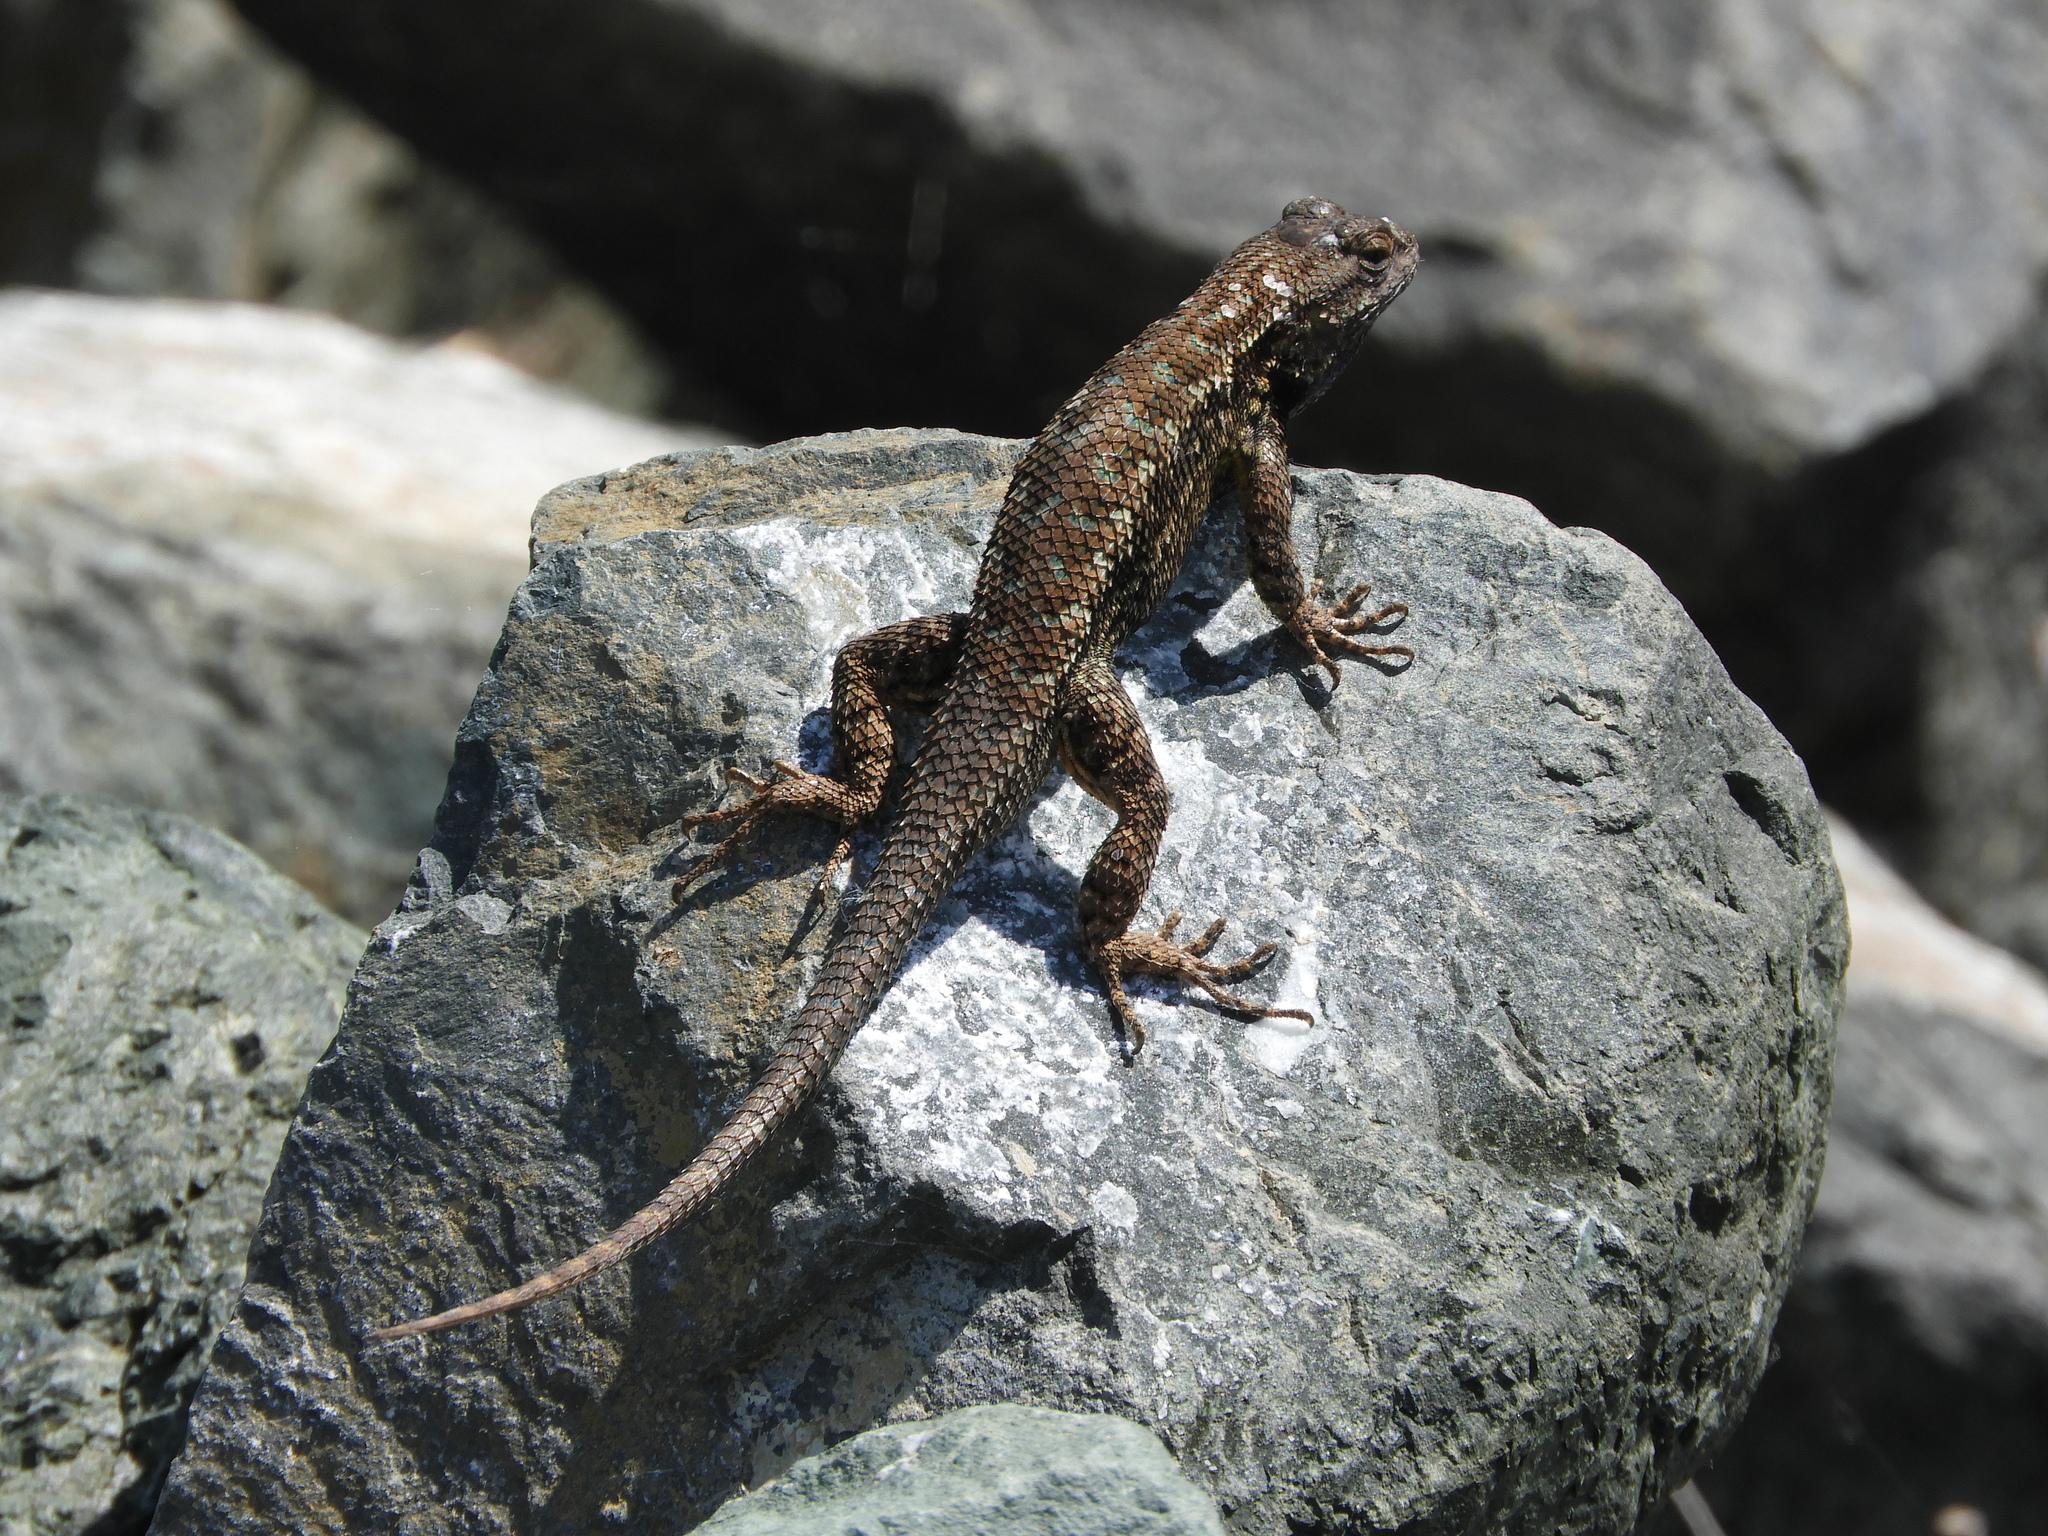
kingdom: Animalia
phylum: Chordata
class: Squamata
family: Phrynosomatidae
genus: Sceloporus
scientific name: Sceloporus occidentalis
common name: Western fence lizard
